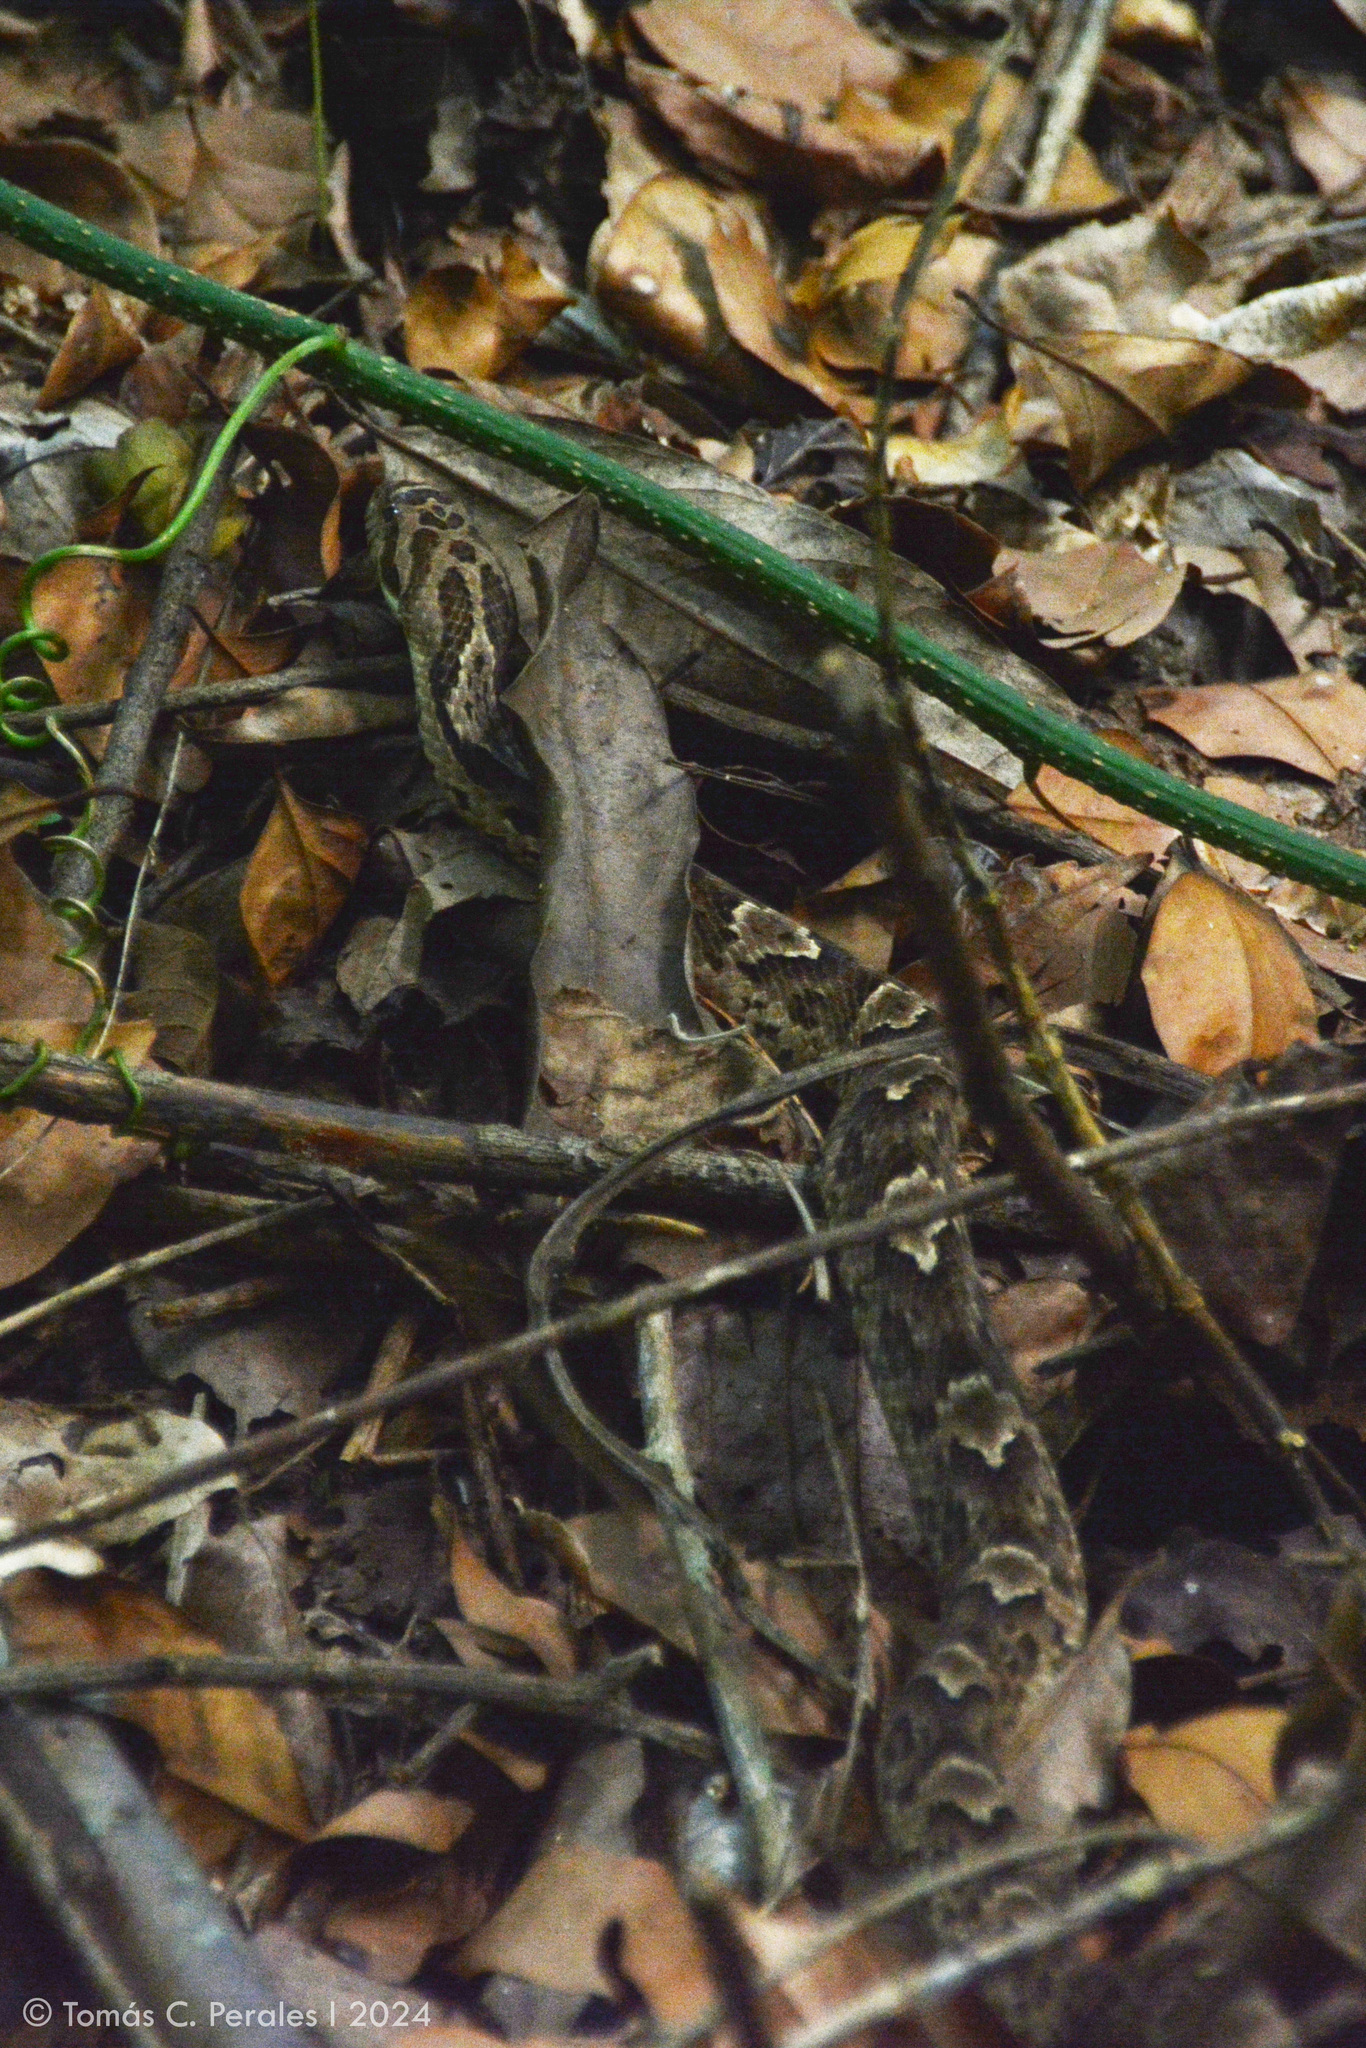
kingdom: Animalia
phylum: Chordata
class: Squamata
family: Colubridae
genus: Xenodon
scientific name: Xenodon merremii
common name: Wagler's snake
